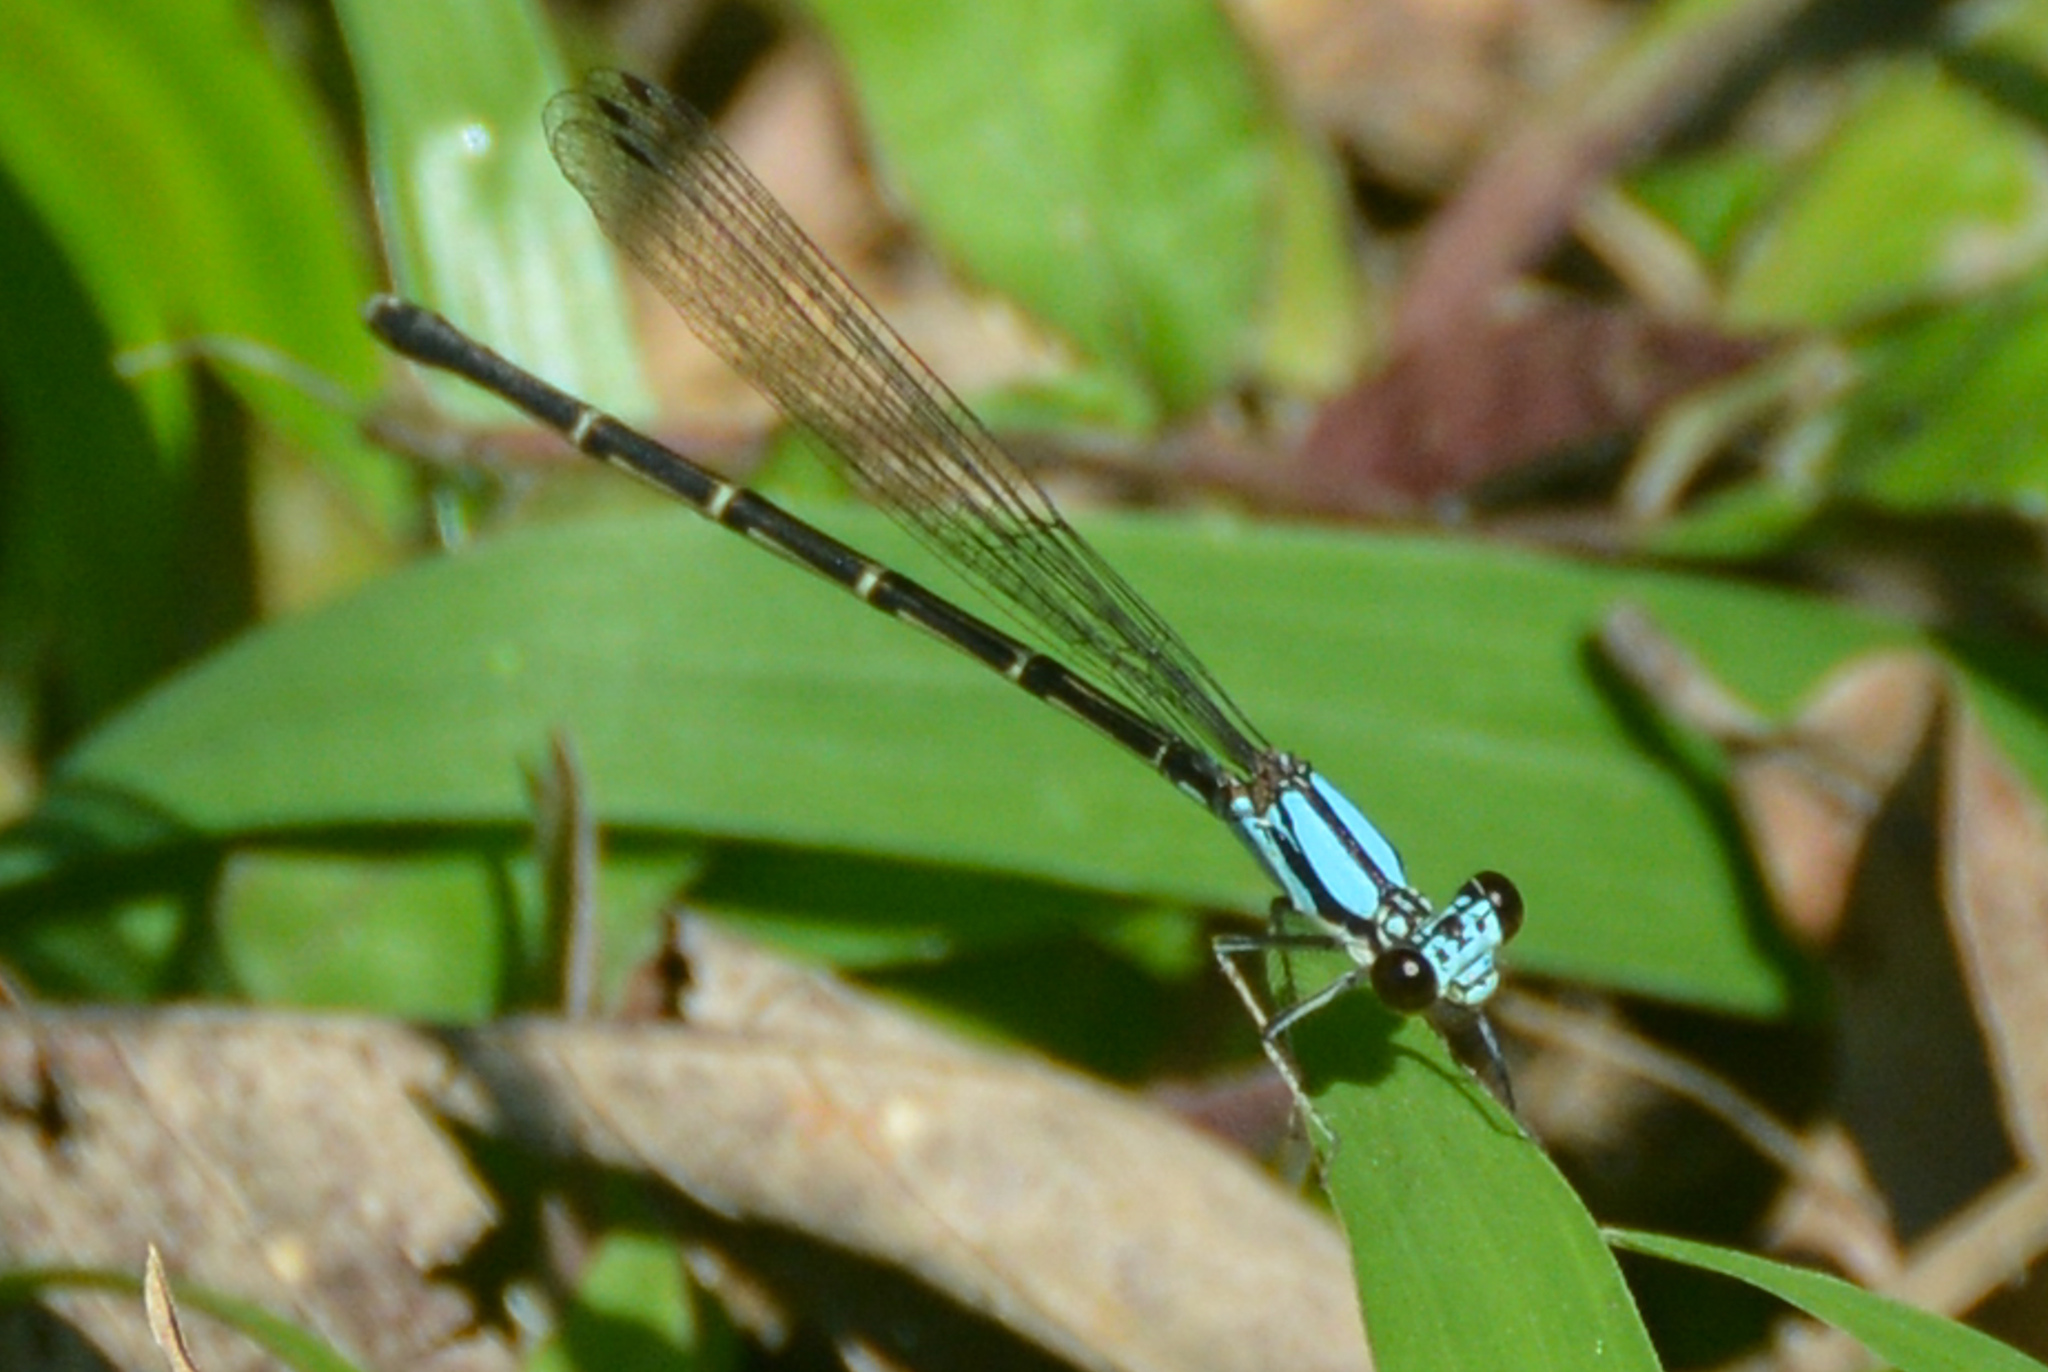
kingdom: Animalia
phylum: Arthropoda
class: Insecta
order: Odonata
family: Coenagrionidae
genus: Argia
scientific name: Argia tibialis
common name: Blue-tipped dancer
